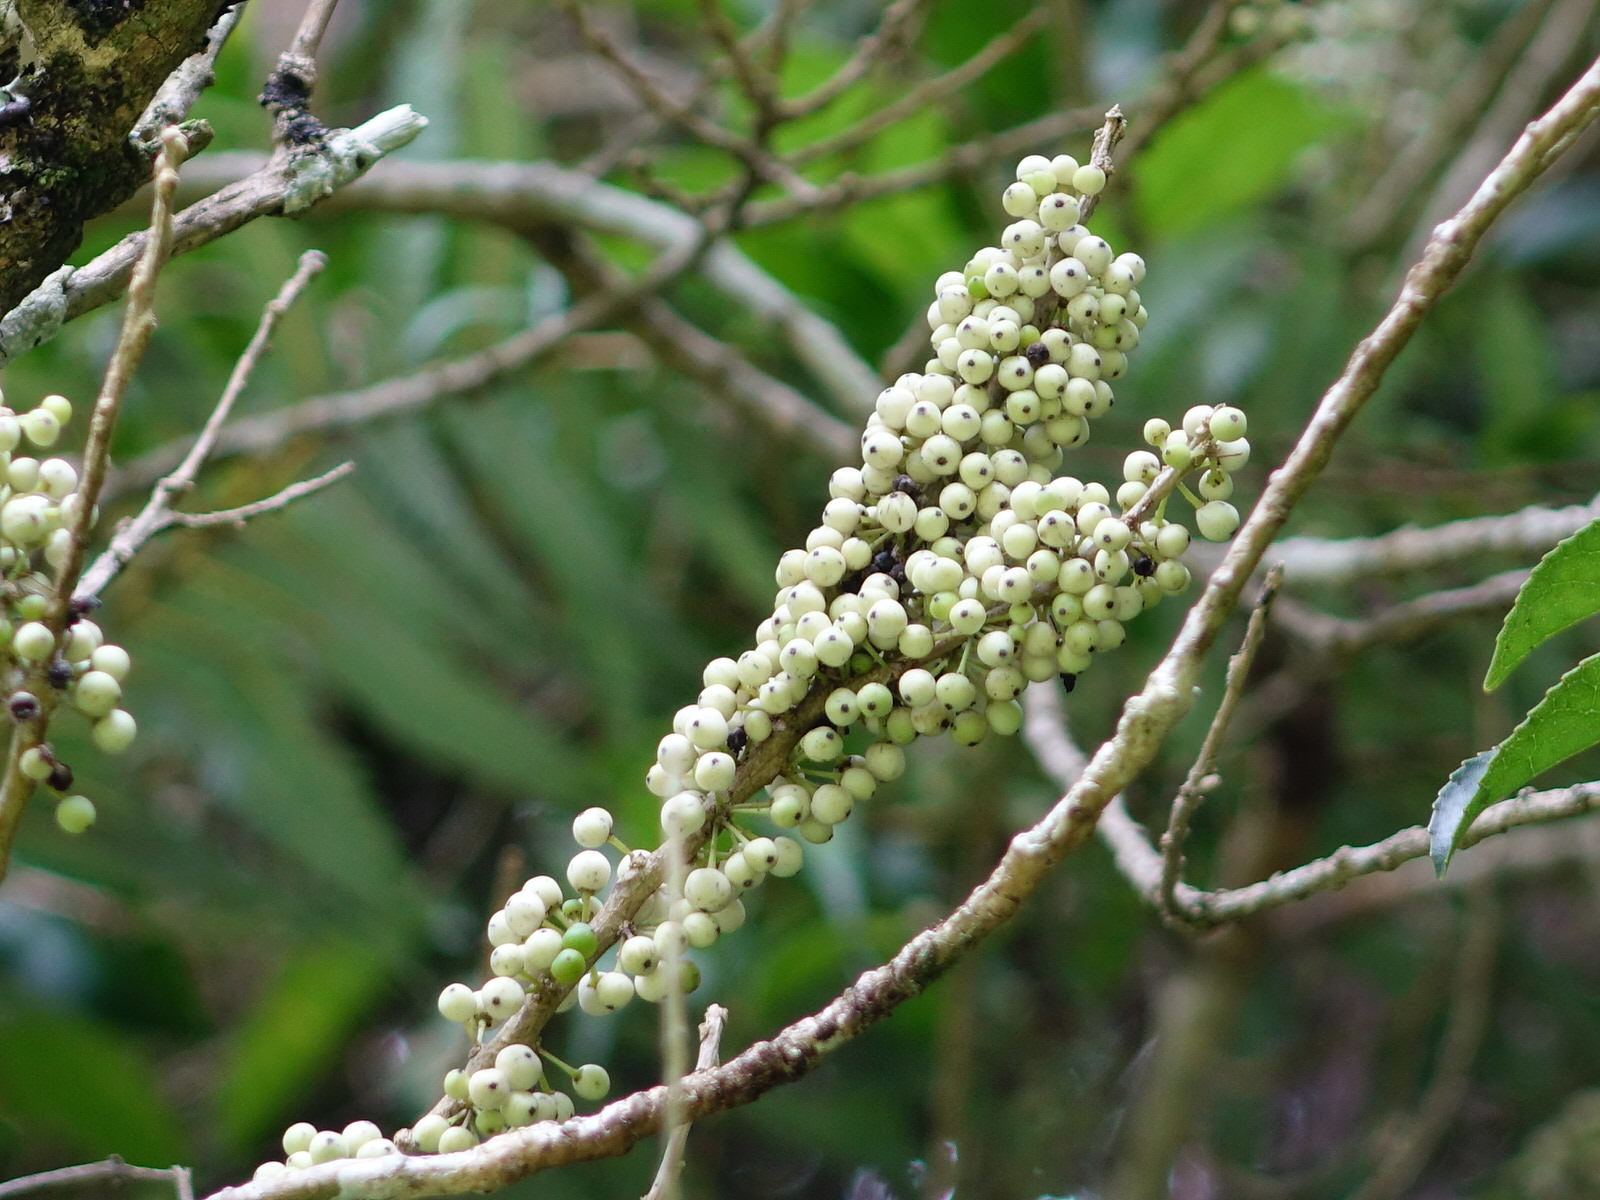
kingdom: Plantae
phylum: Tracheophyta
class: Magnoliopsida
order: Malpighiales
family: Violaceae
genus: Melicytus
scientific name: Melicytus ramiflorus
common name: Mahoe
